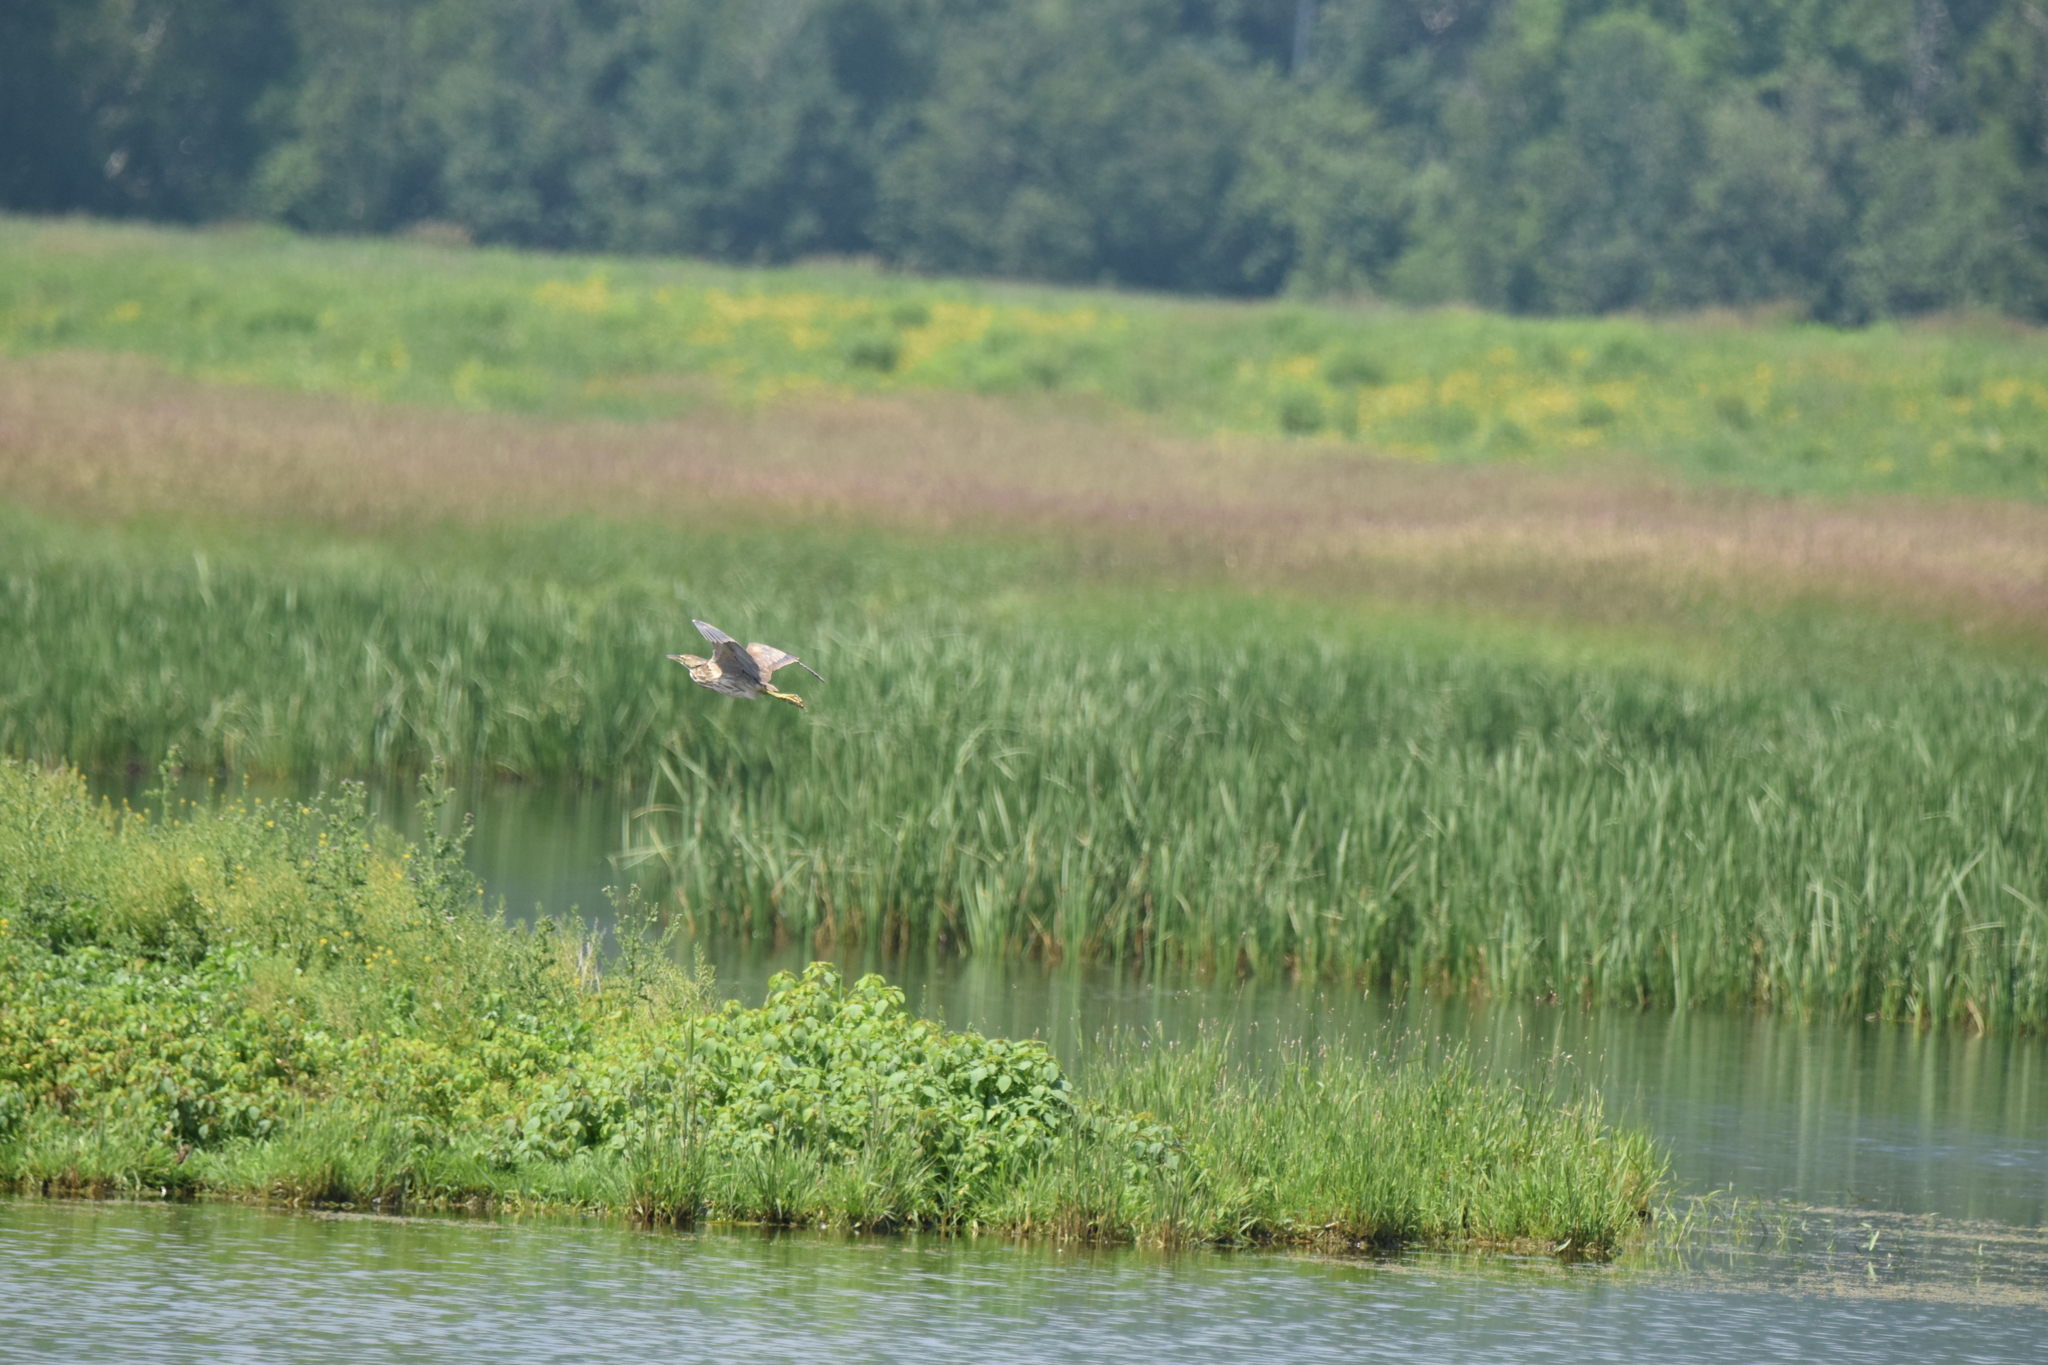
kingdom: Animalia
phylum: Chordata
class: Aves
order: Pelecaniformes
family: Ardeidae
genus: Botaurus
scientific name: Botaurus lentiginosus
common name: American bittern
